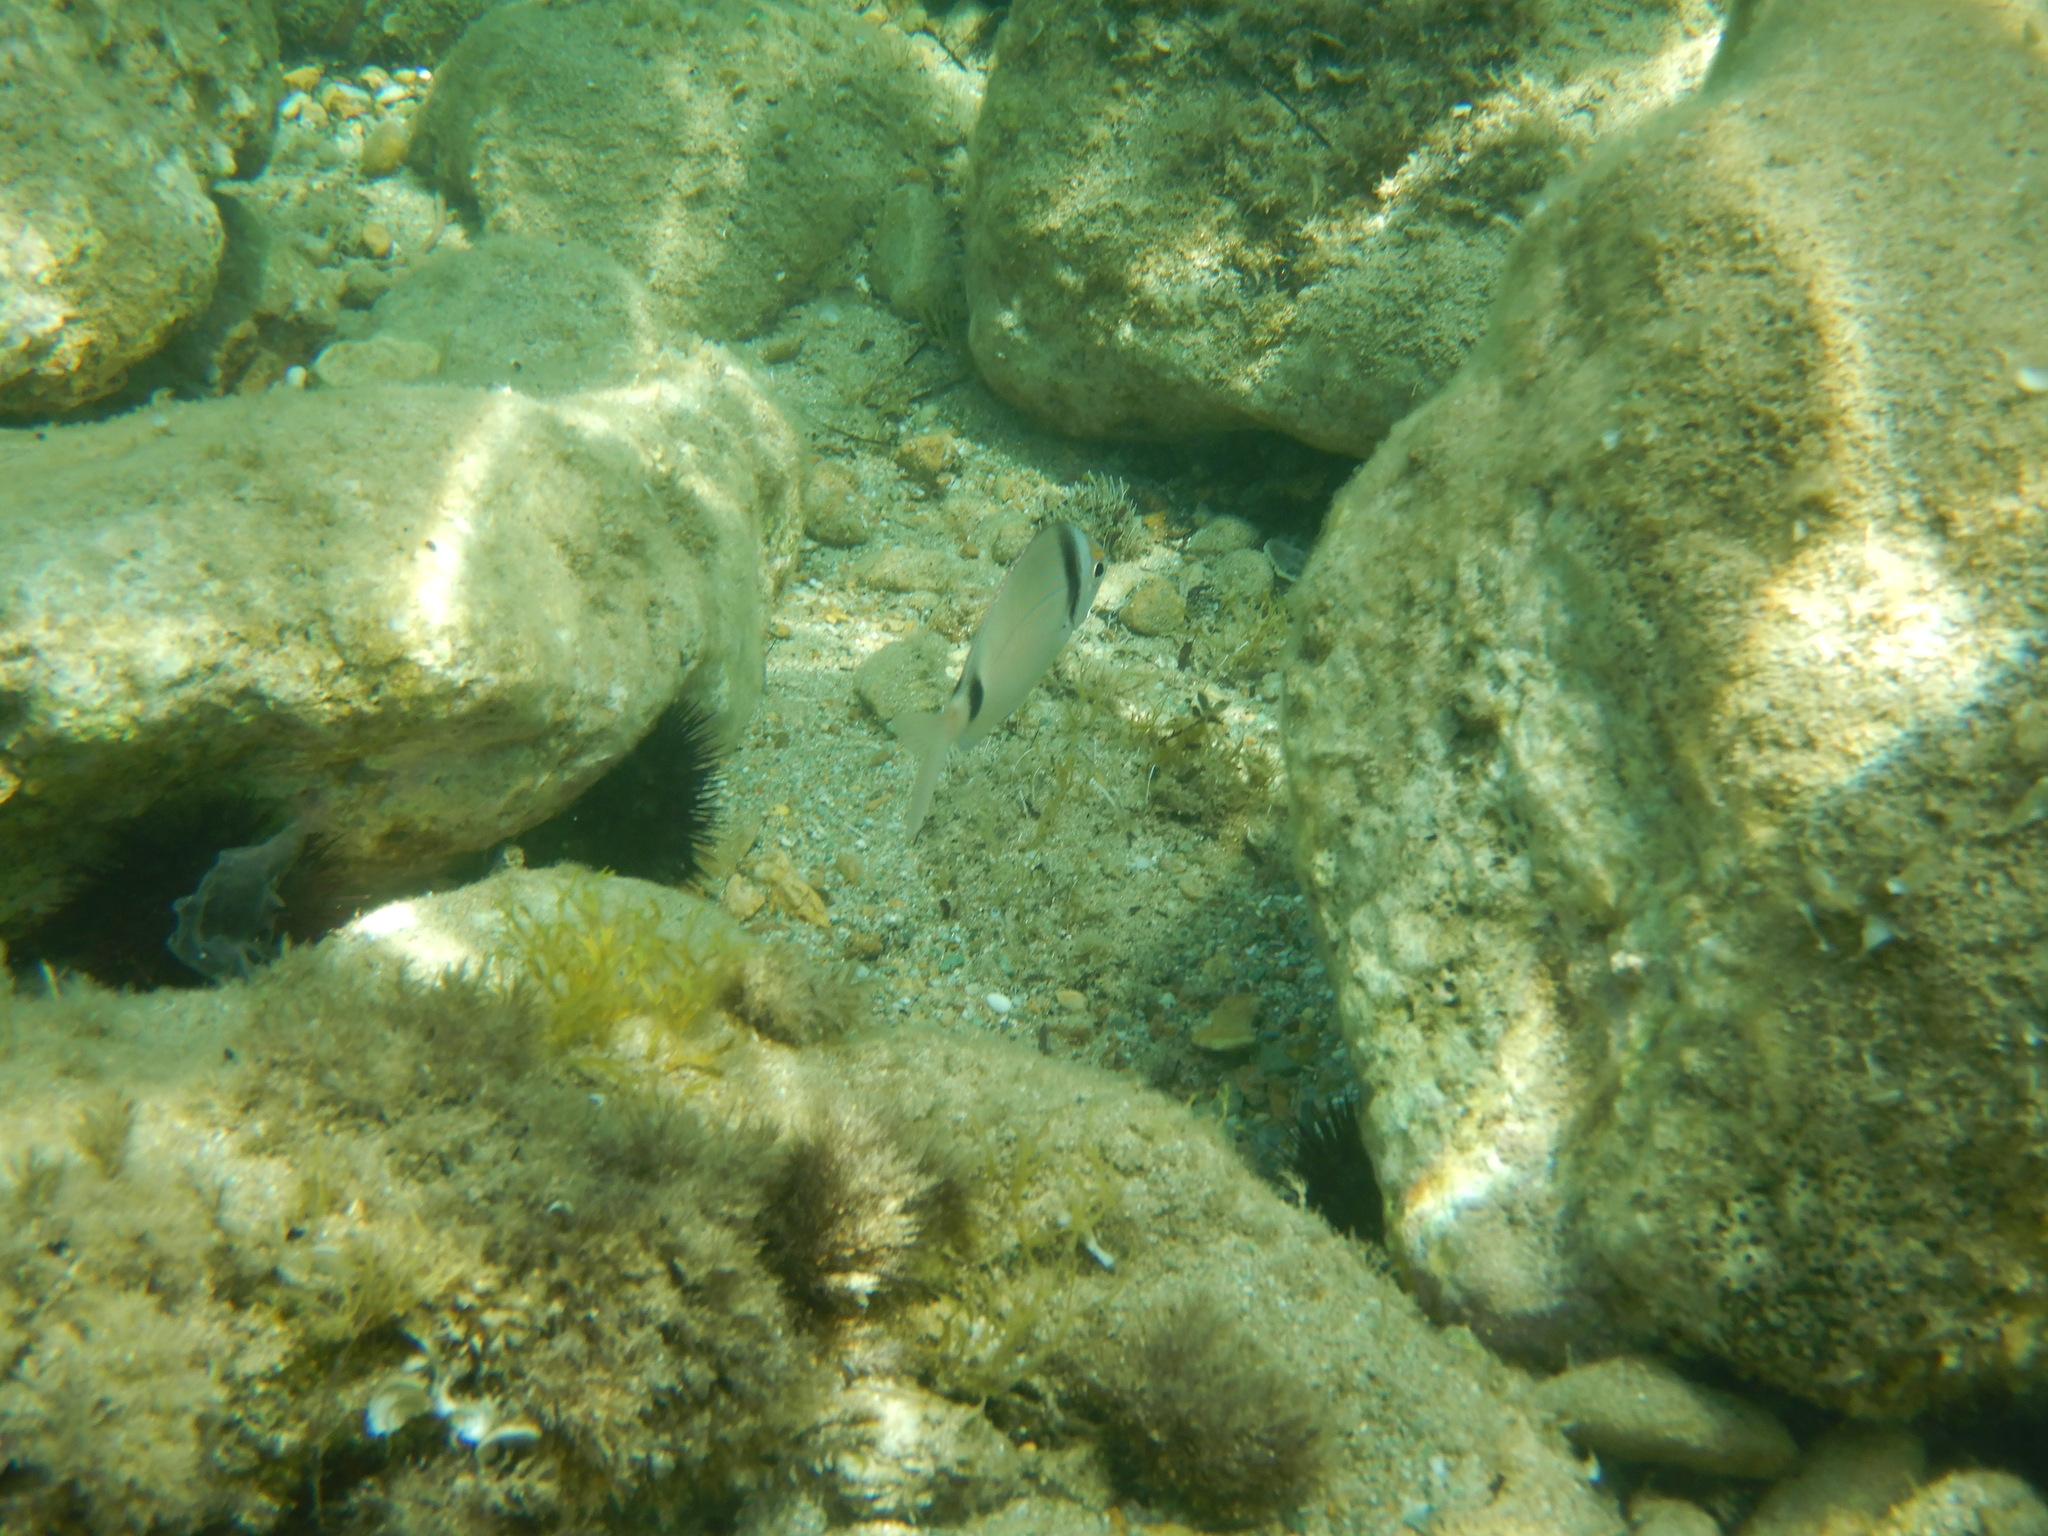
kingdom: Animalia
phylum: Chordata
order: Perciformes
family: Sparidae
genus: Diplodus
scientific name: Diplodus vulgaris
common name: Common two-banded seabream
